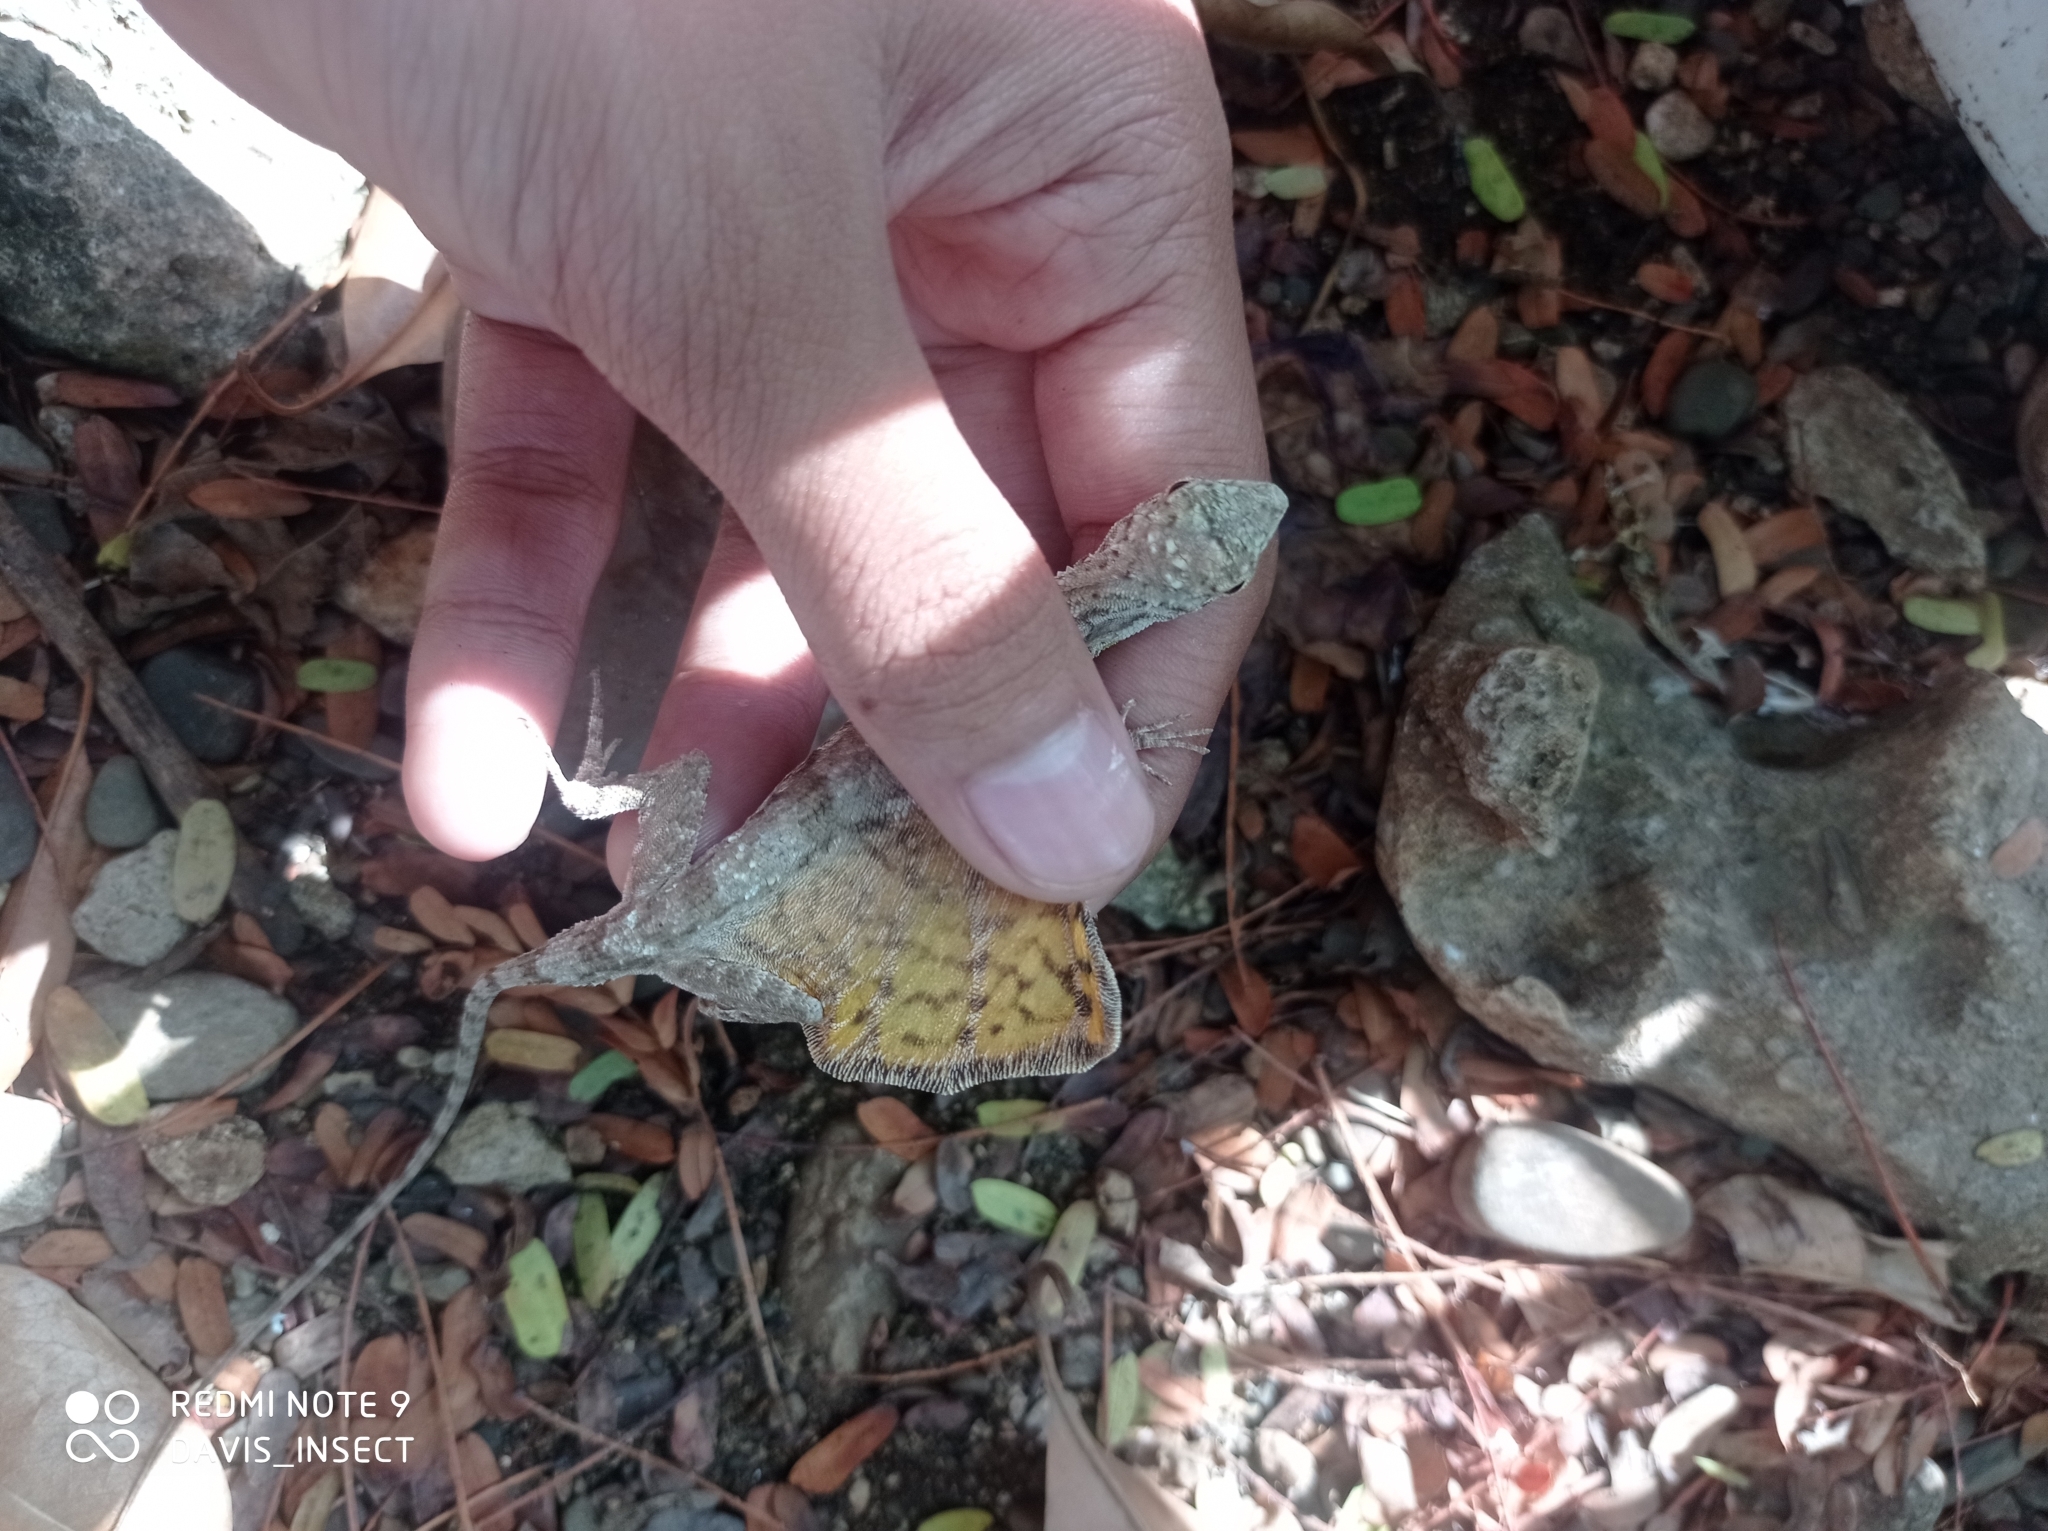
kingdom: Animalia
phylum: Chordata
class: Squamata
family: Agamidae
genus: Draco
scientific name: Draco timoriensis
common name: Timor flying dragon
